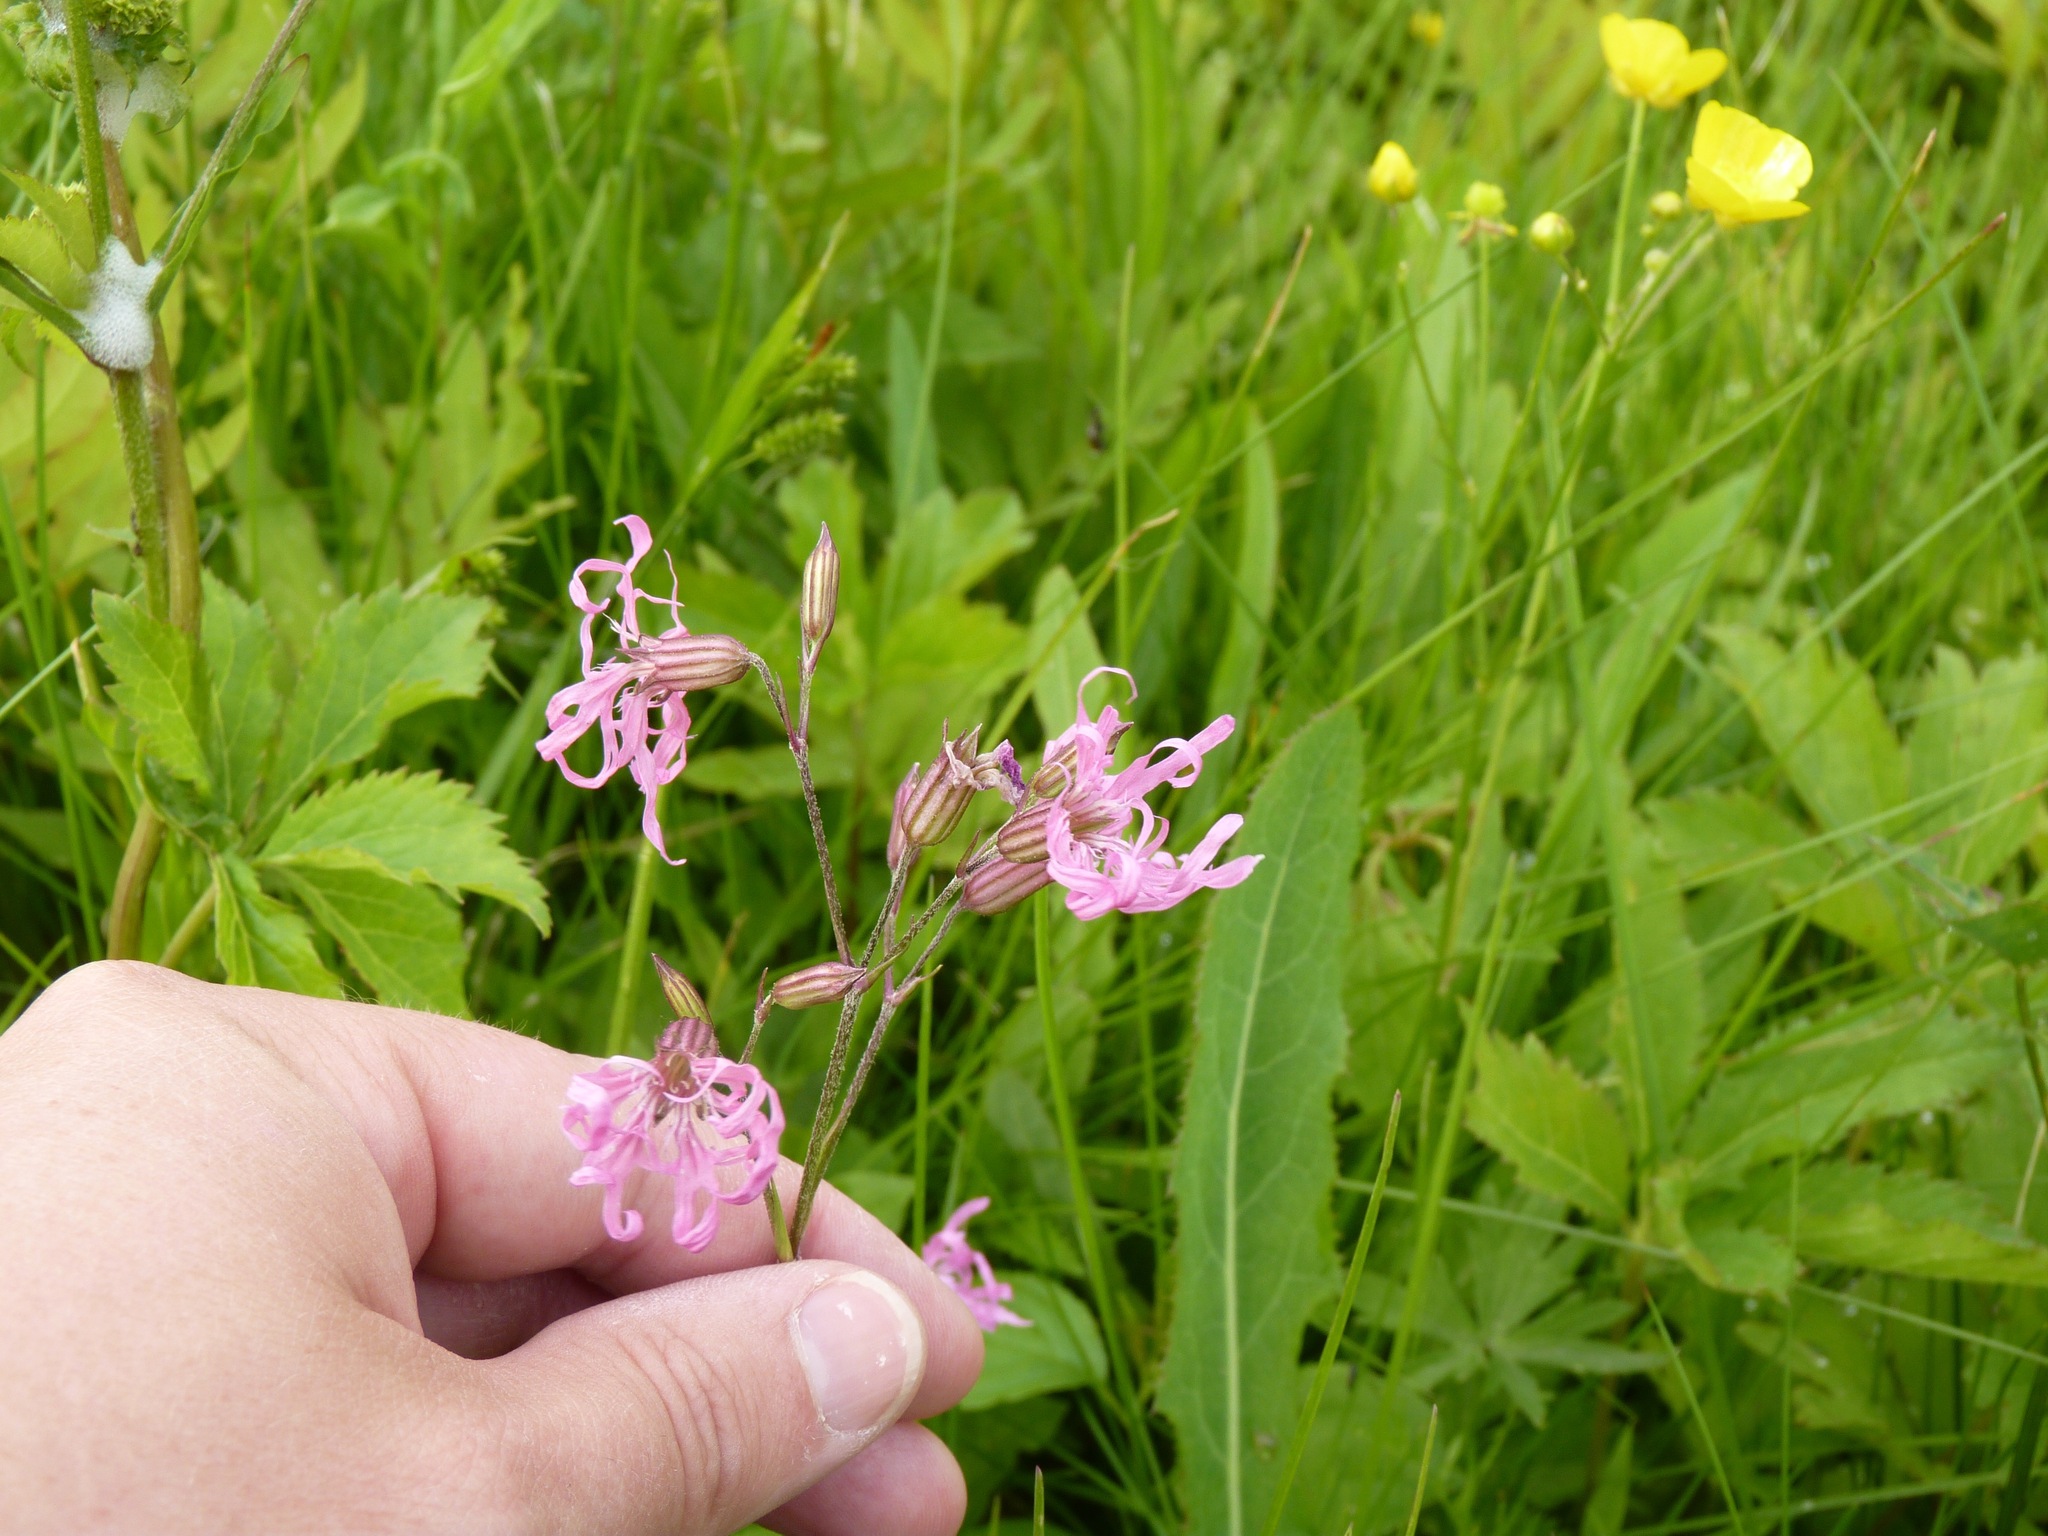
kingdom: Plantae
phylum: Tracheophyta
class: Magnoliopsida
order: Caryophyllales
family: Caryophyllaceae
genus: Silene
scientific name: Silene flos-cuculi
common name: Ragged-robin
